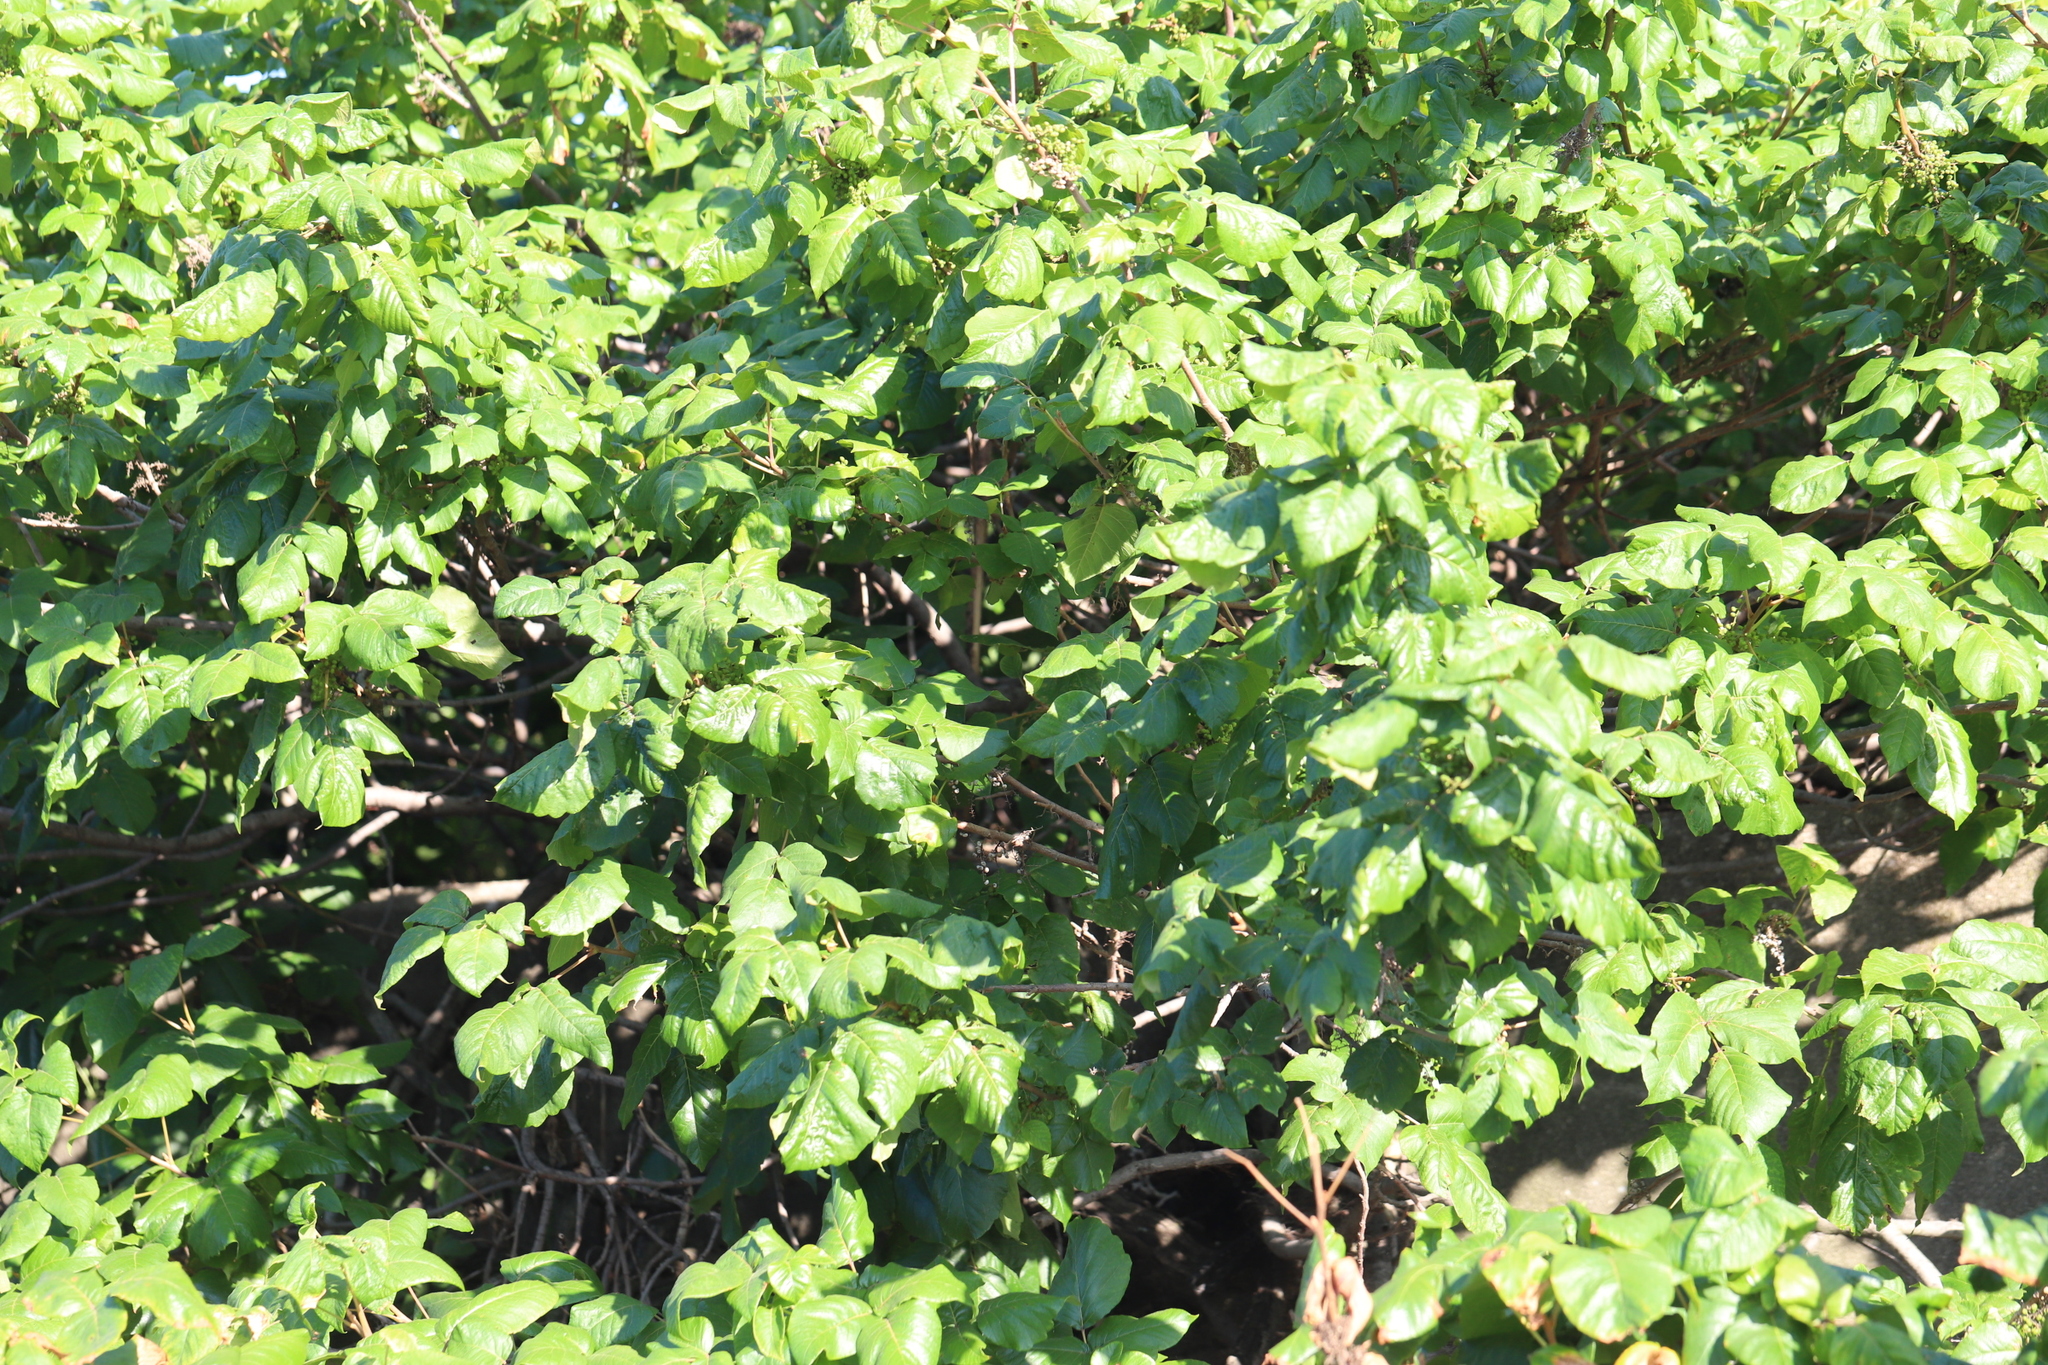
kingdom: Plantae
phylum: Tracheophyta
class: Magnoliopsida
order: Sapindales
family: Anacardiaceae
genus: Toxicodendron
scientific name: Toxicodendron radicans
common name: Poison ivy
